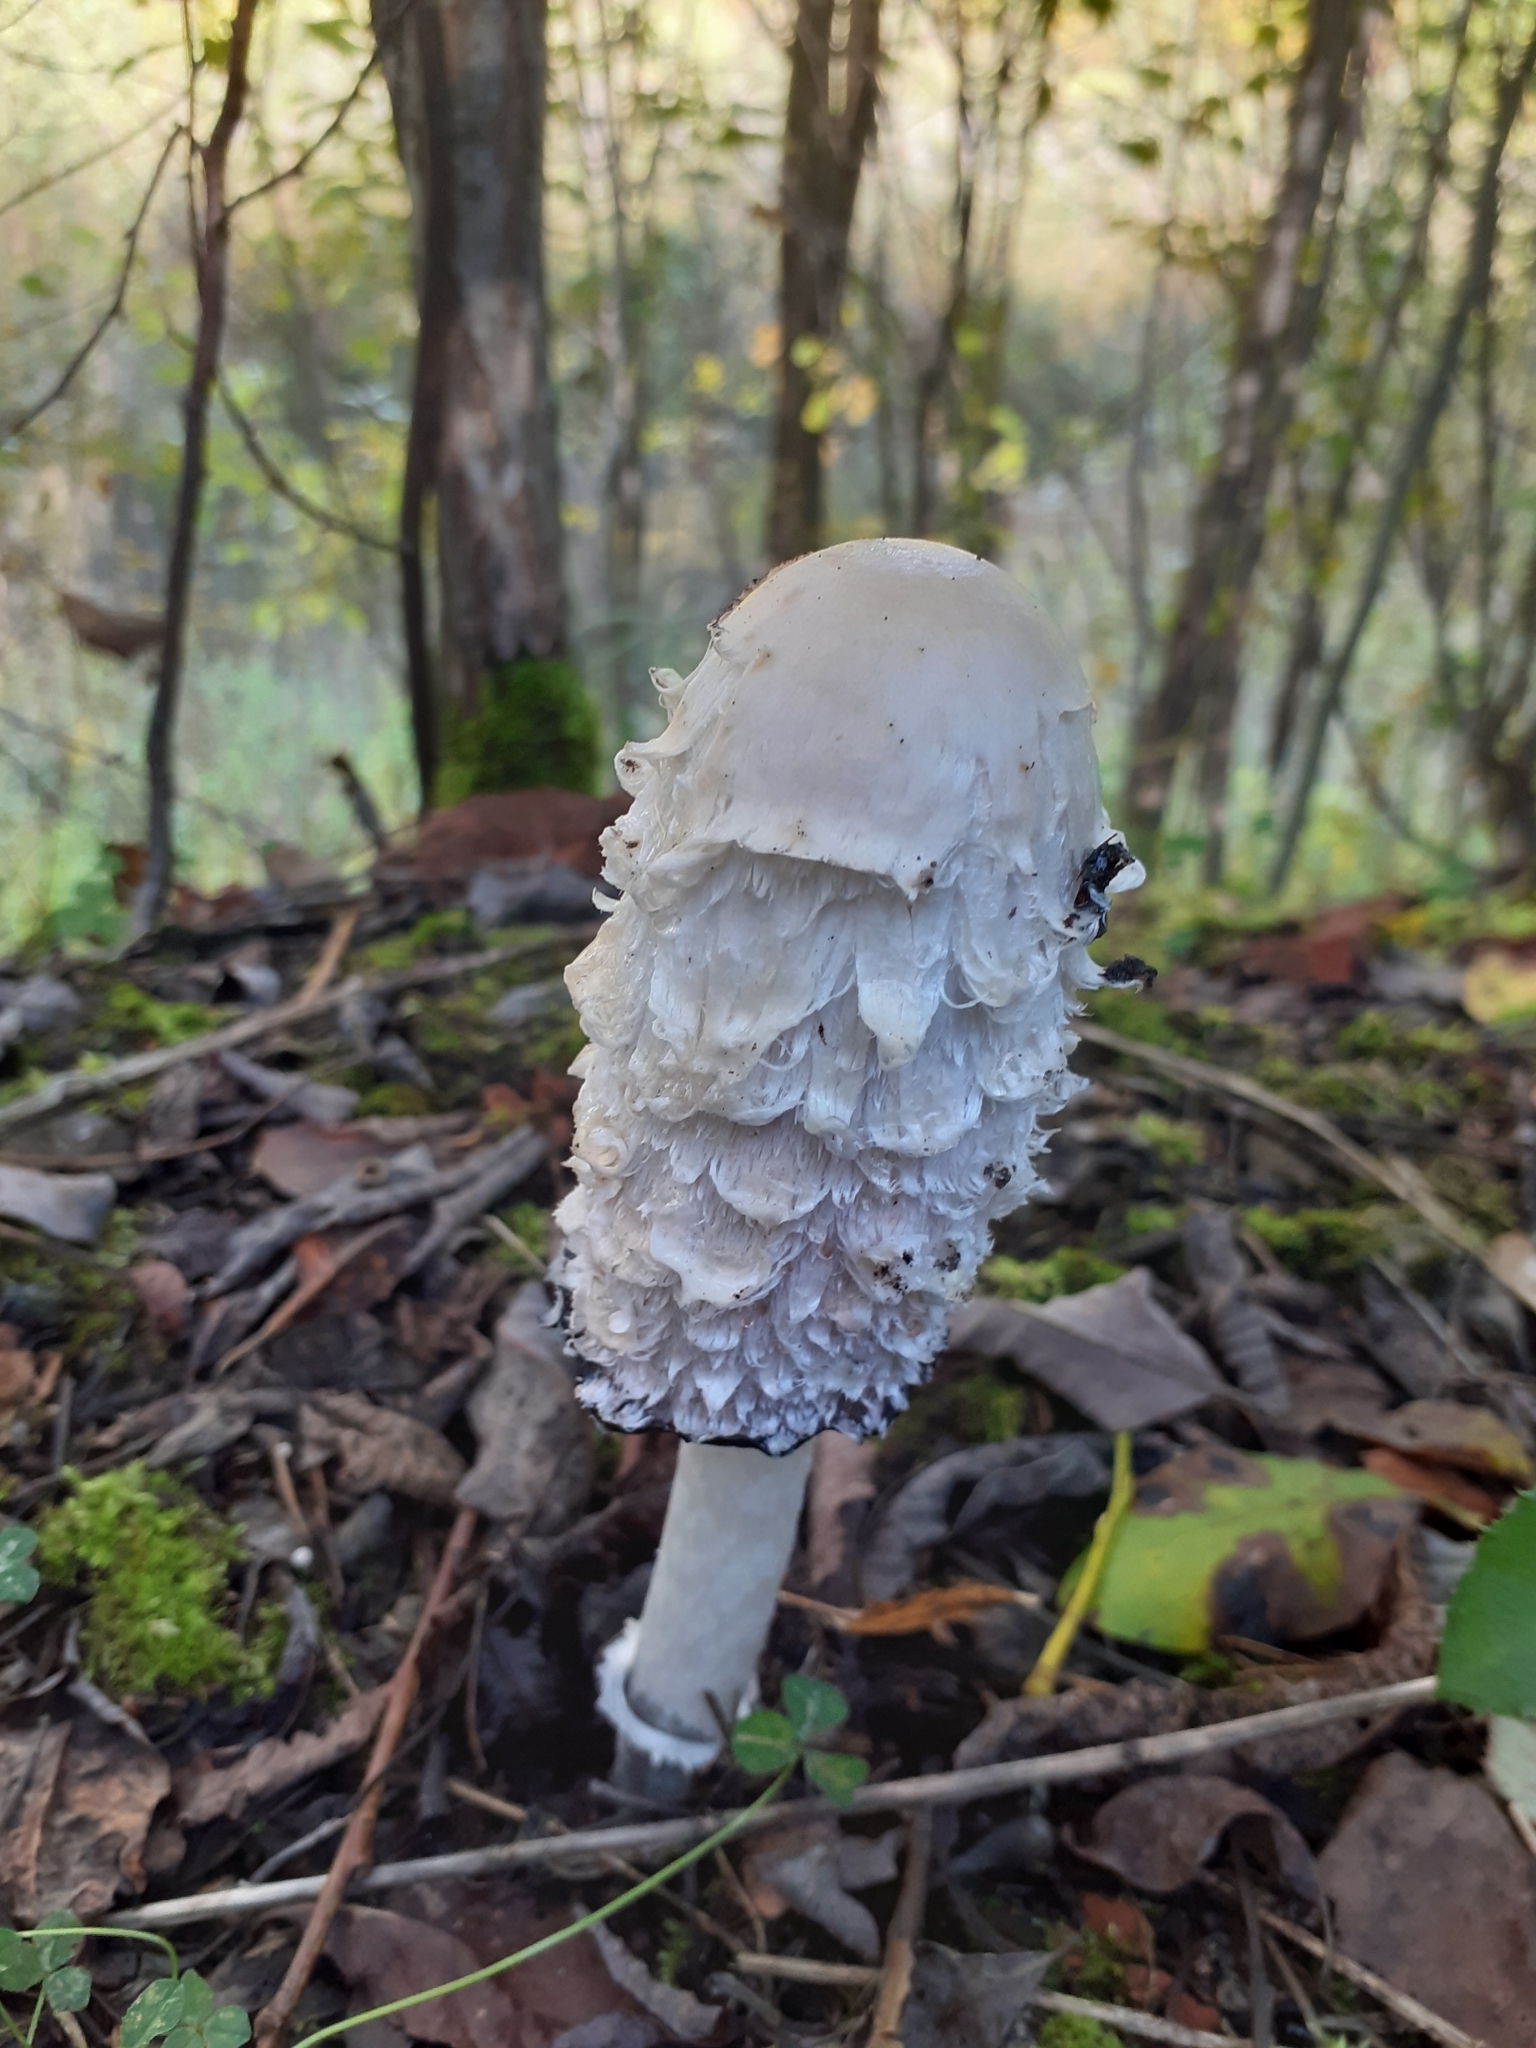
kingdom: Fungi
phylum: Basidiomycota
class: Agaricomycetes
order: Agaricales
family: Agaricaceae
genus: Coprinus
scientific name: Coprinus comatus
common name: Lawyer's wig
